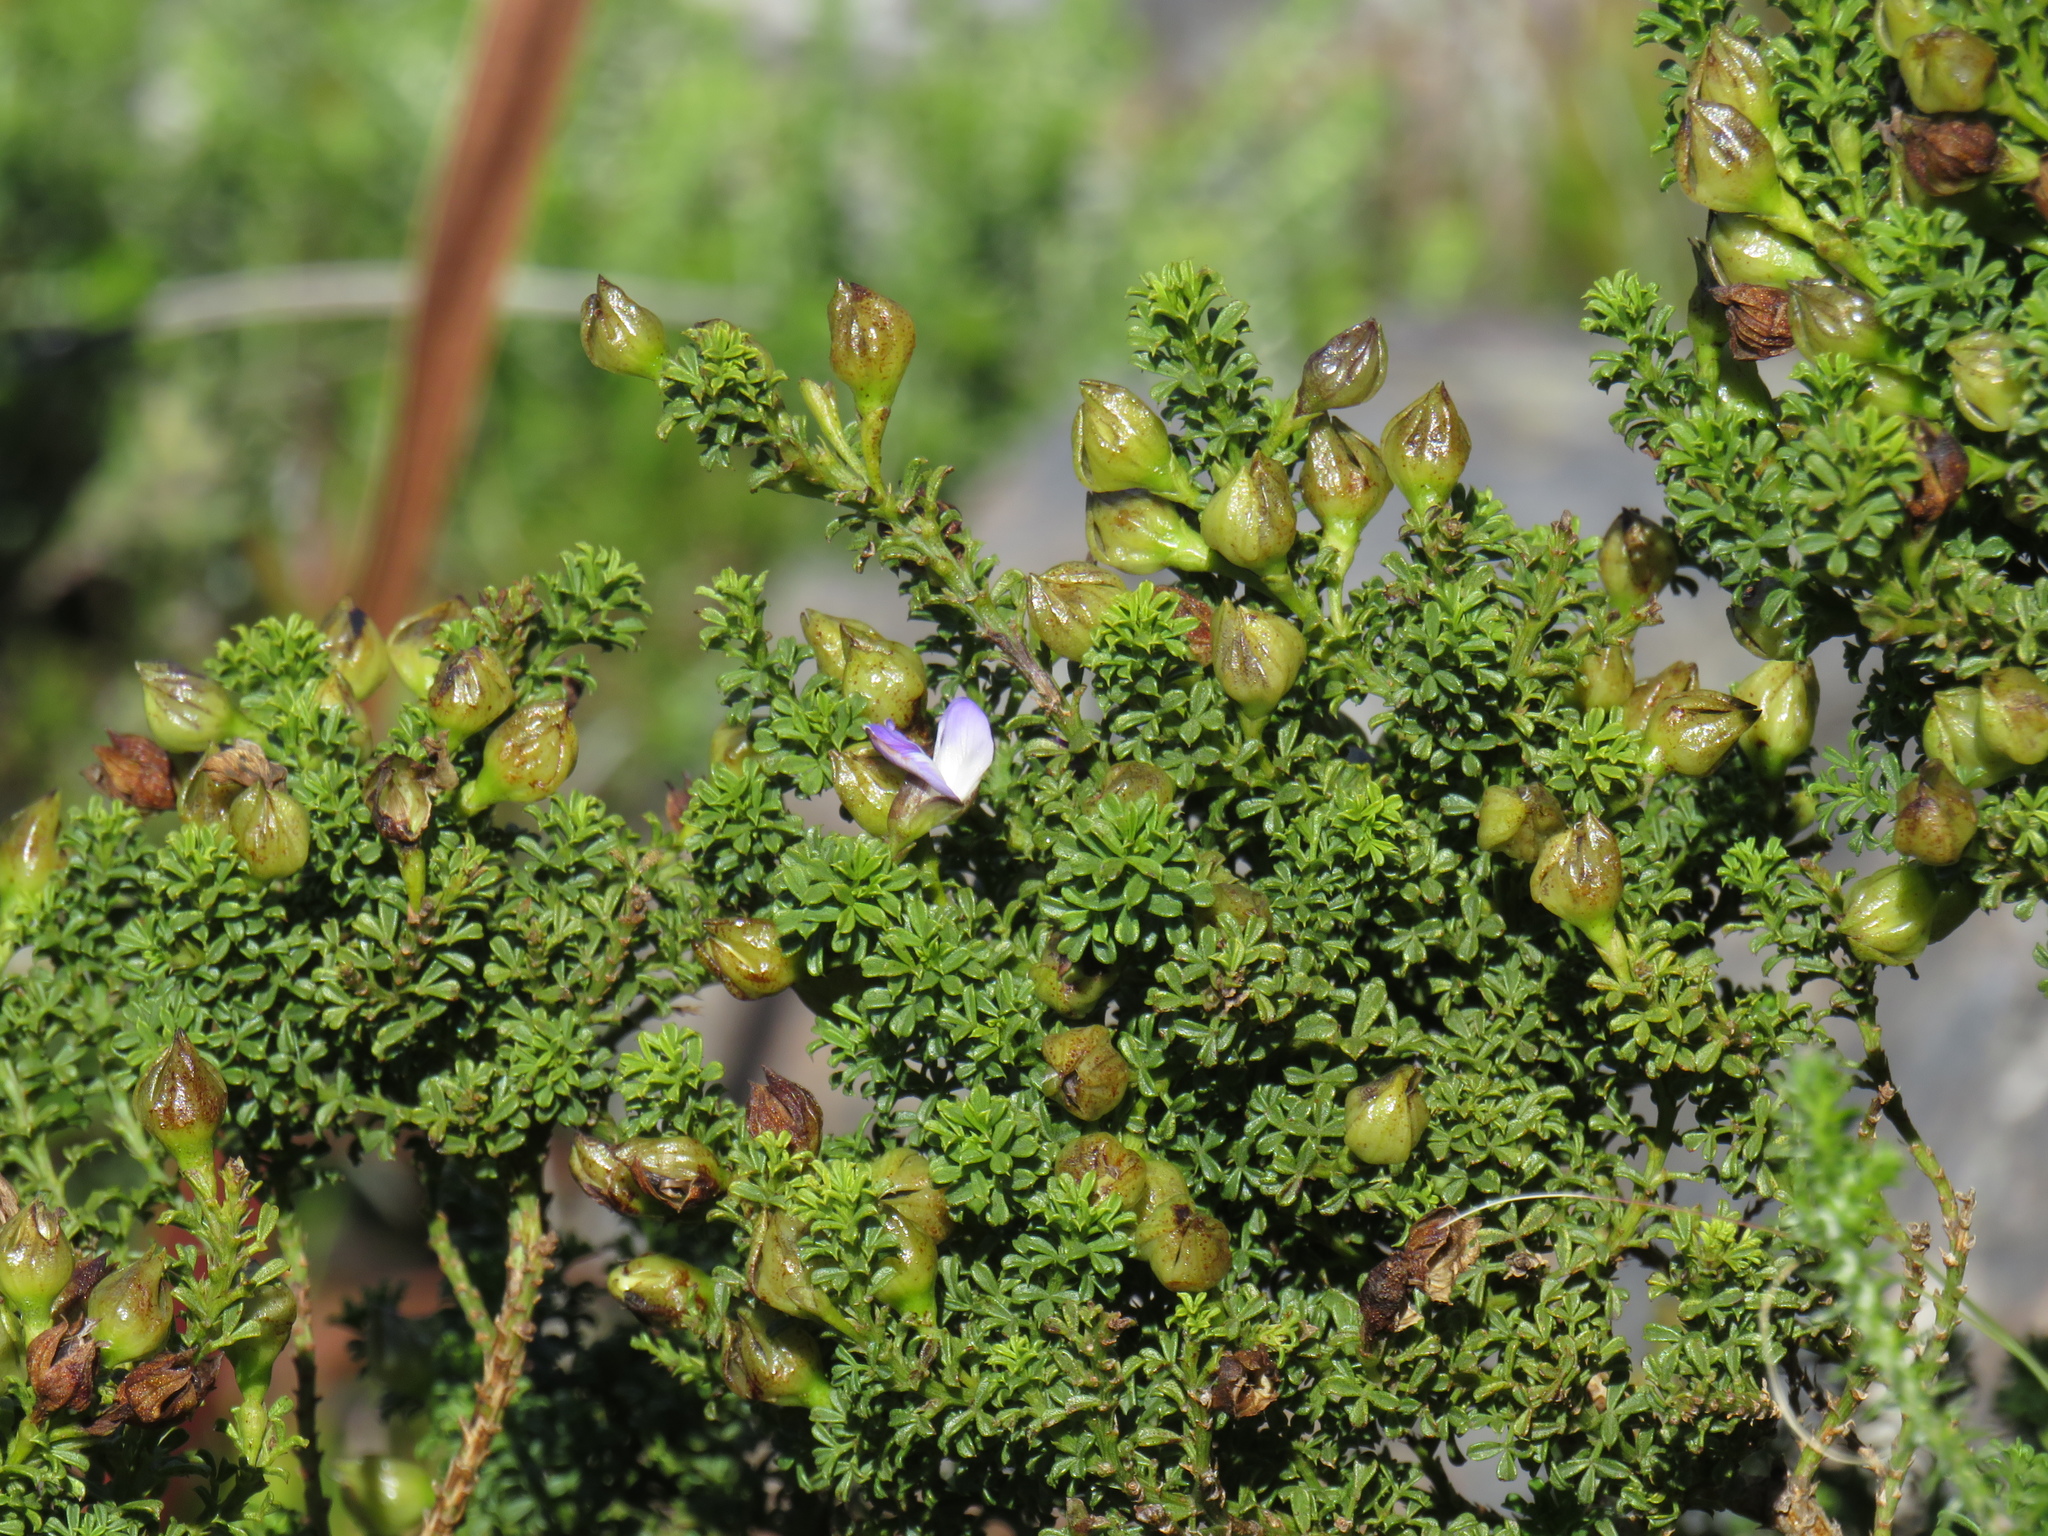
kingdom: Plantae
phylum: Tracheophyta
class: Magnoliopsida
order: Fabales
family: Fabaceae
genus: Psoralea
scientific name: Psoralea aculeata
